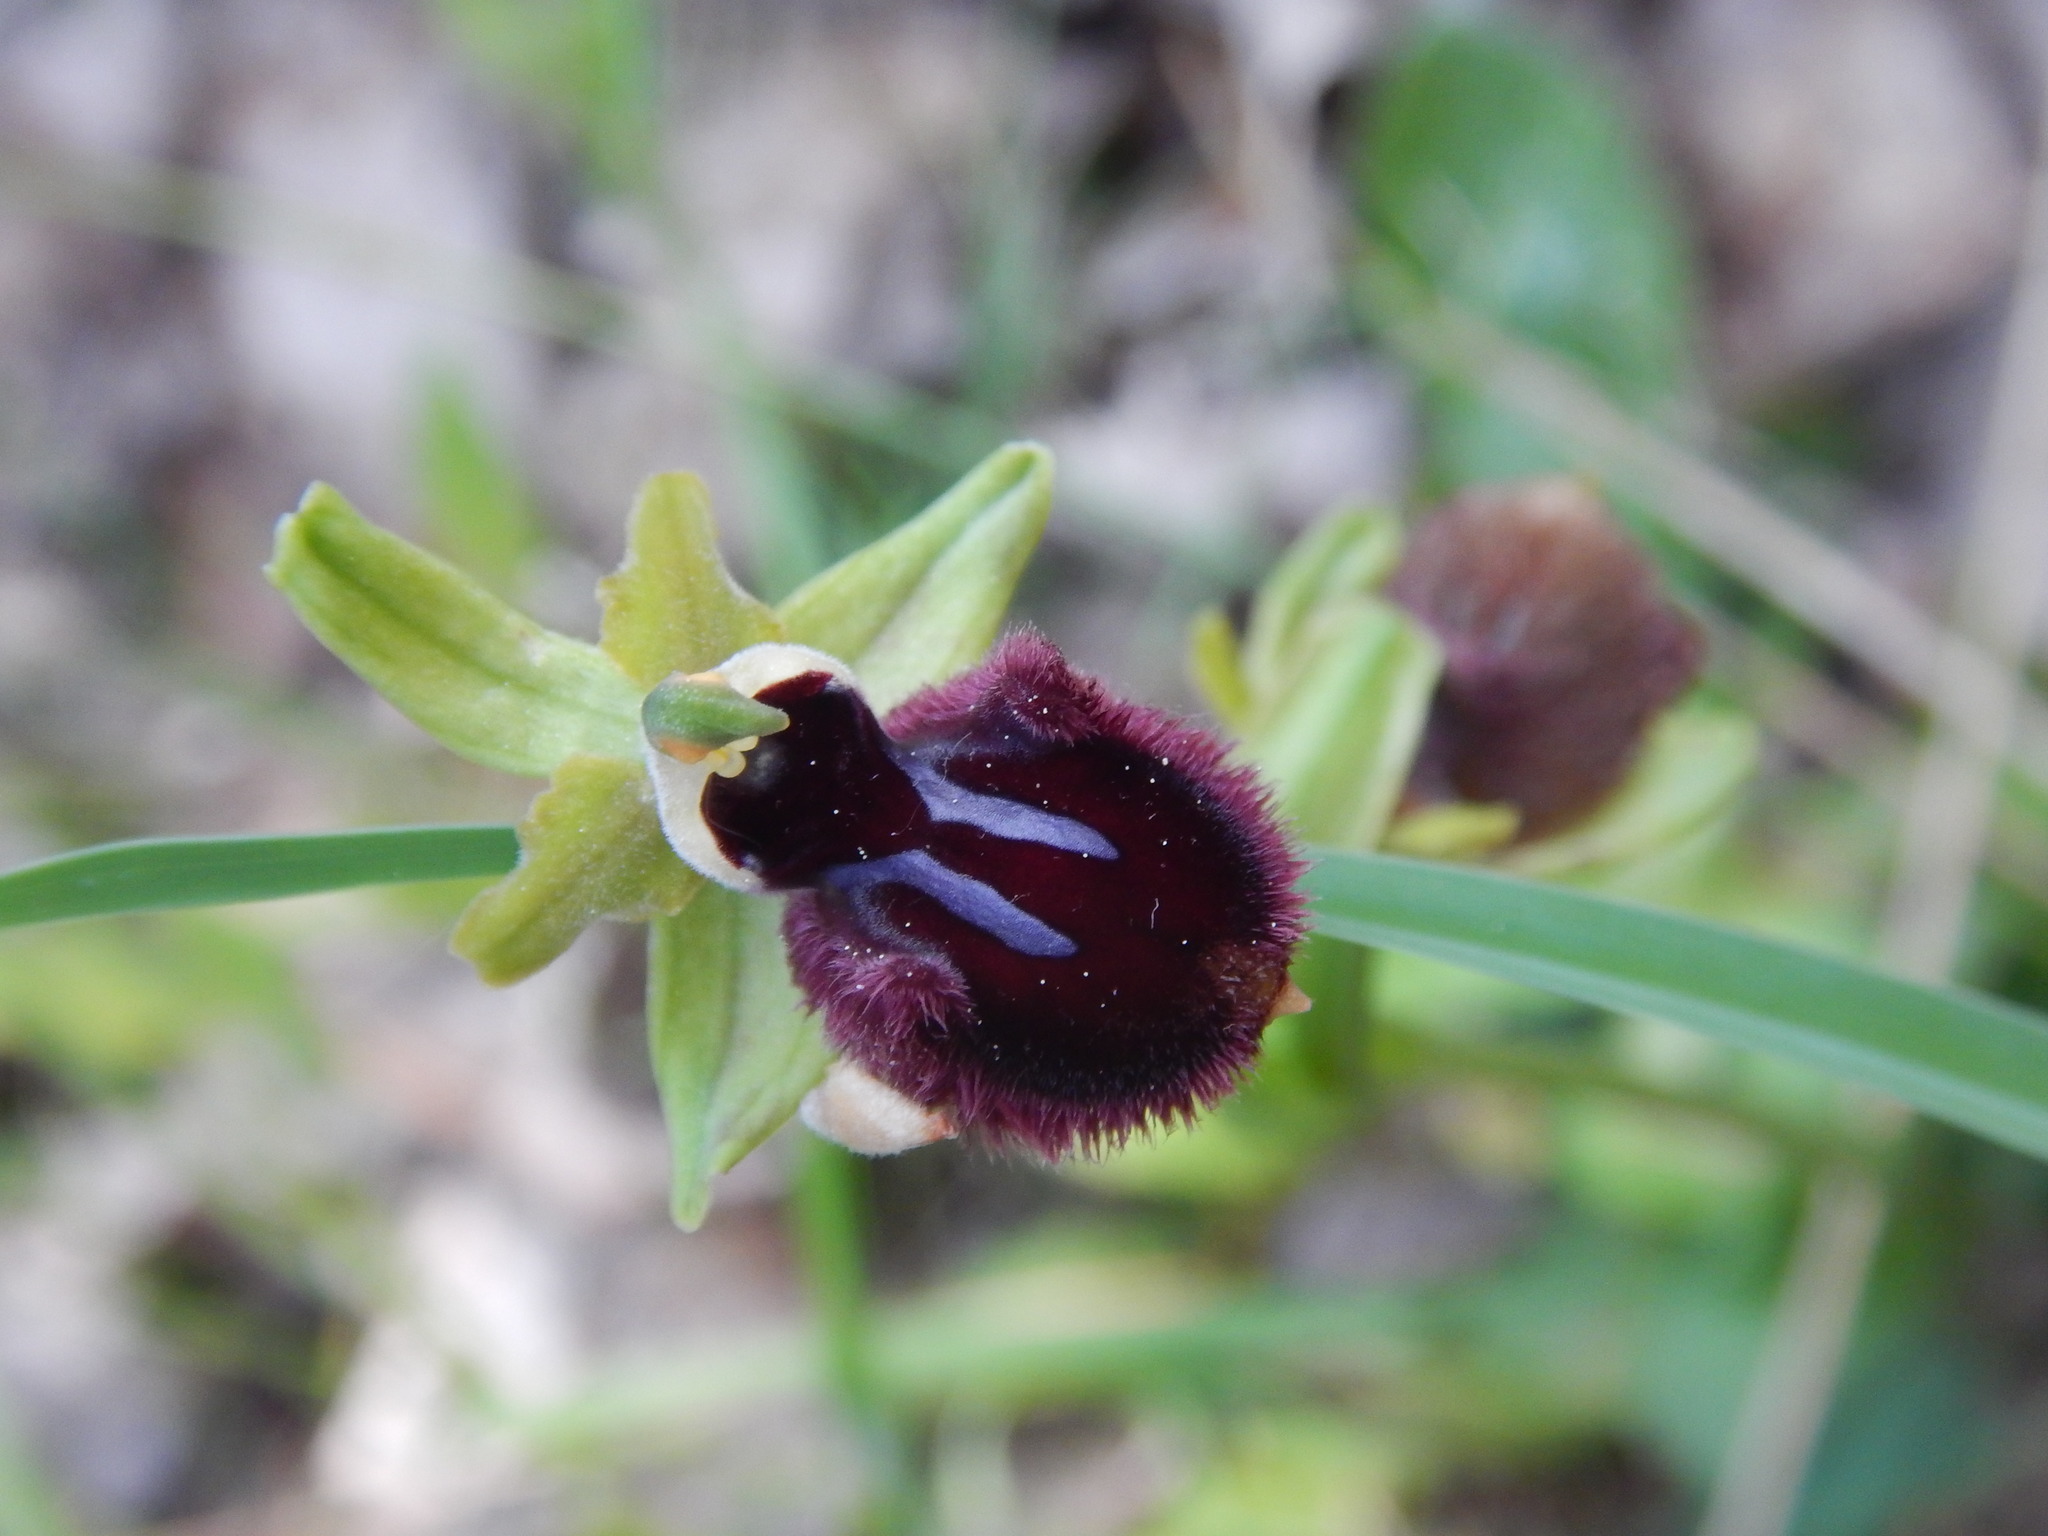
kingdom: Plantae
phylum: Tracheophyta
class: Liliopsida
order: Asparagales
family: Orchidaceae
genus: Ophrys
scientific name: Ophrys sphegodes
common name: Early spider-orchid
